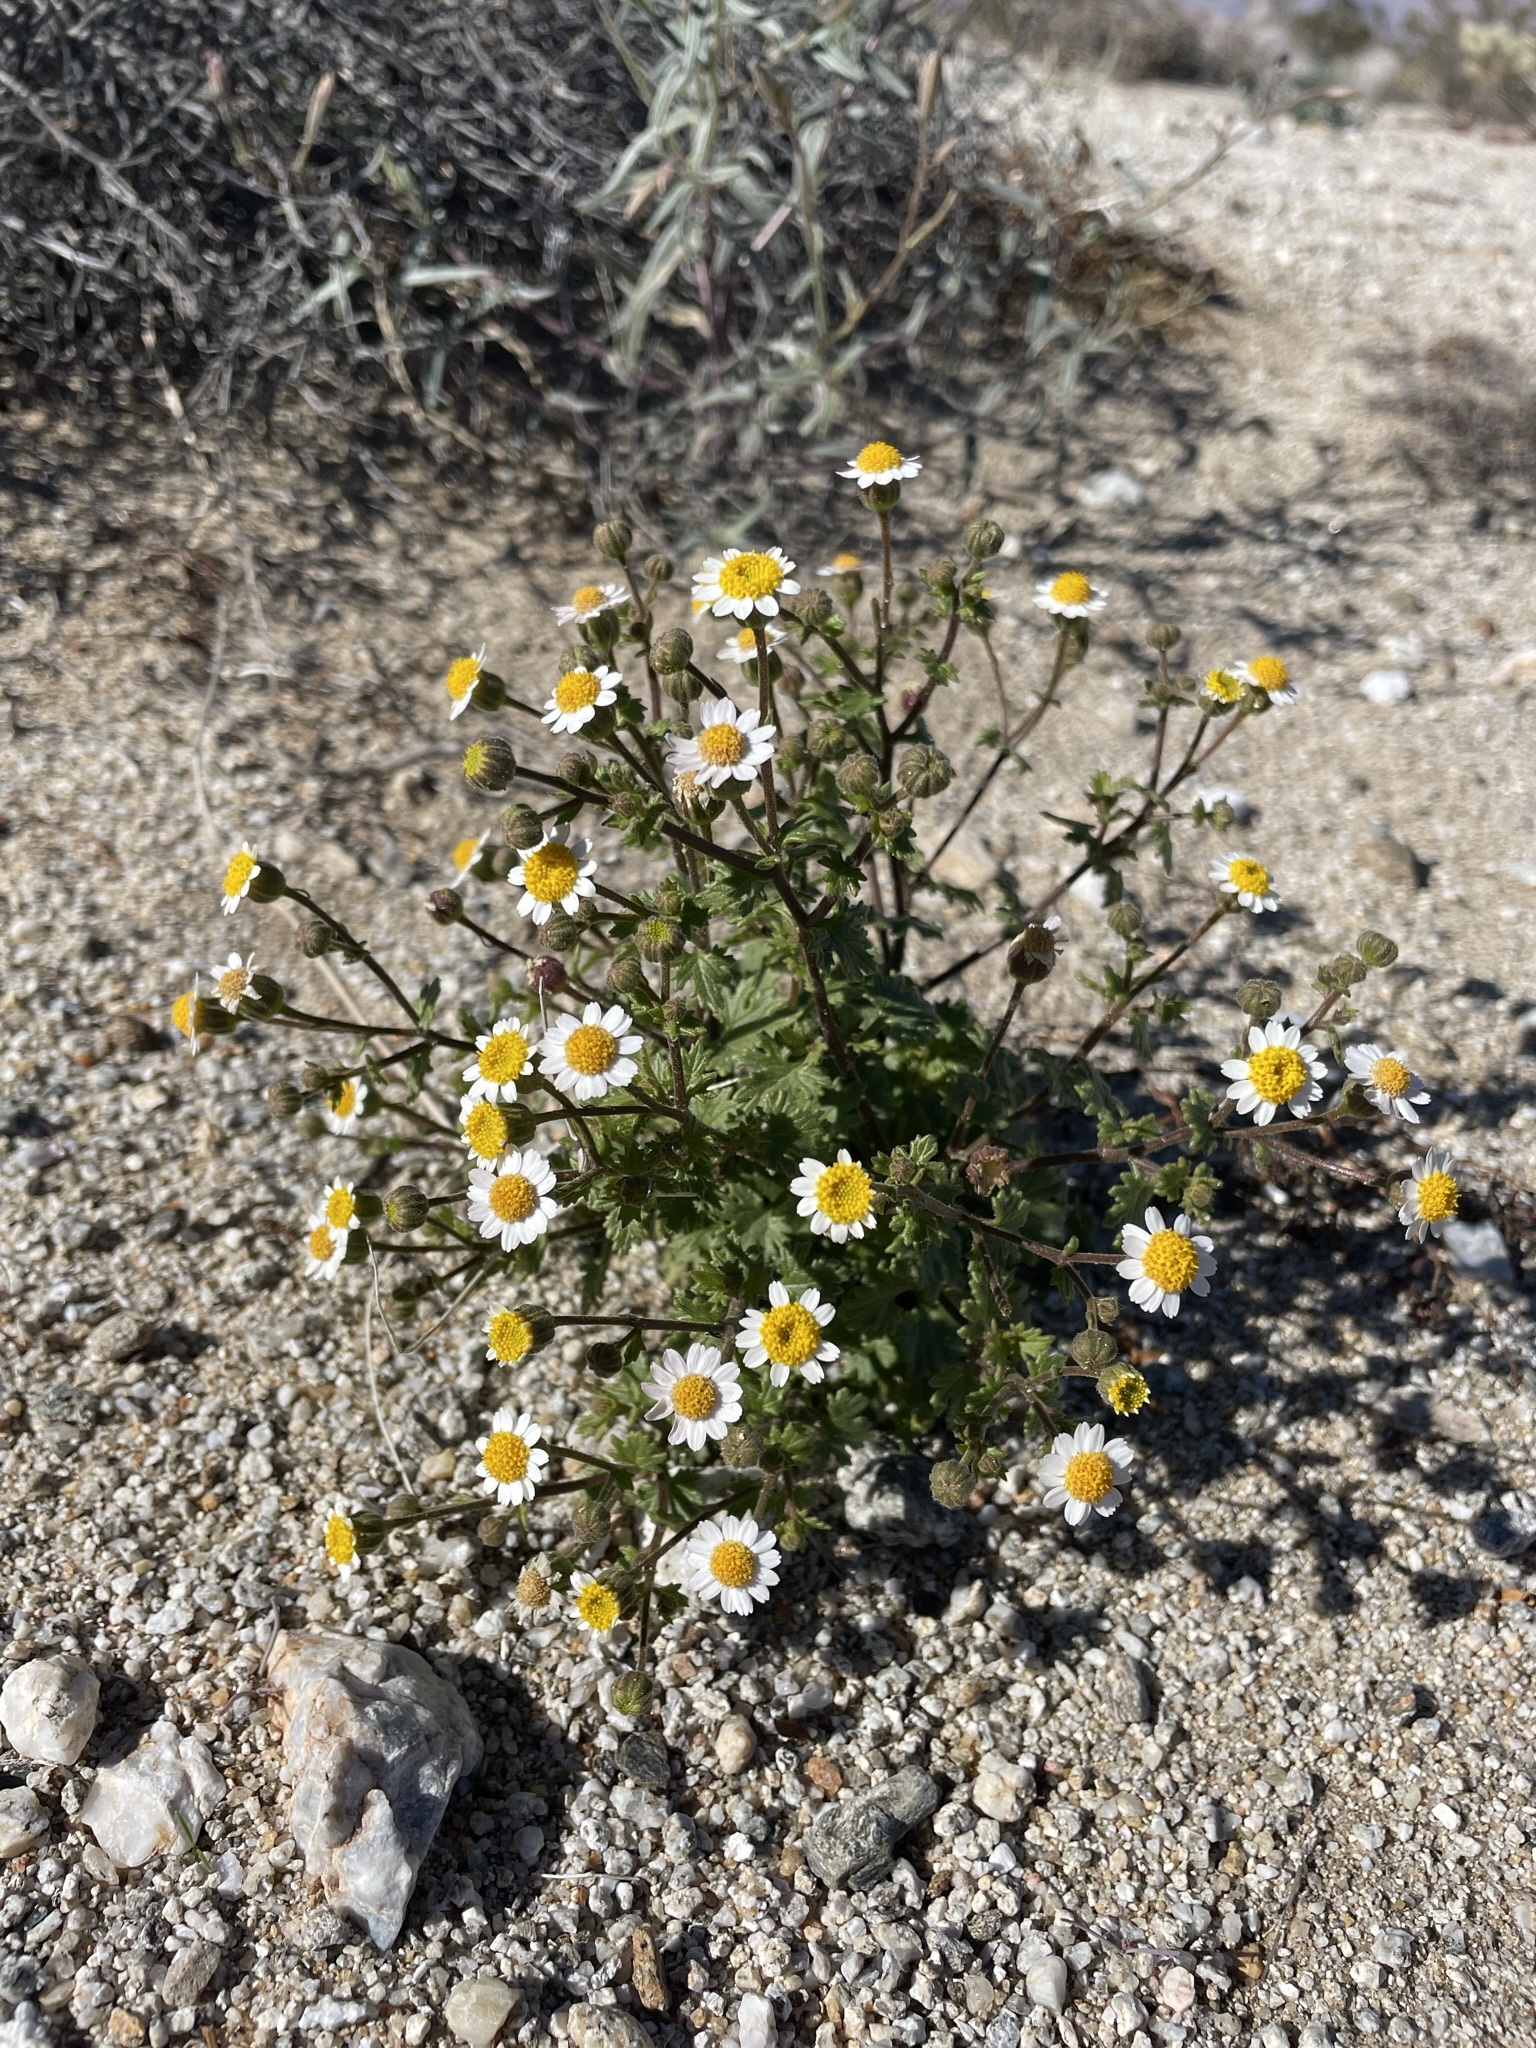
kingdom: Plantae
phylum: Tracheophyta
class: Magnoliopsida
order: Asterales
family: Asteraceae
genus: Laphamia
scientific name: Laphamia emoryi
